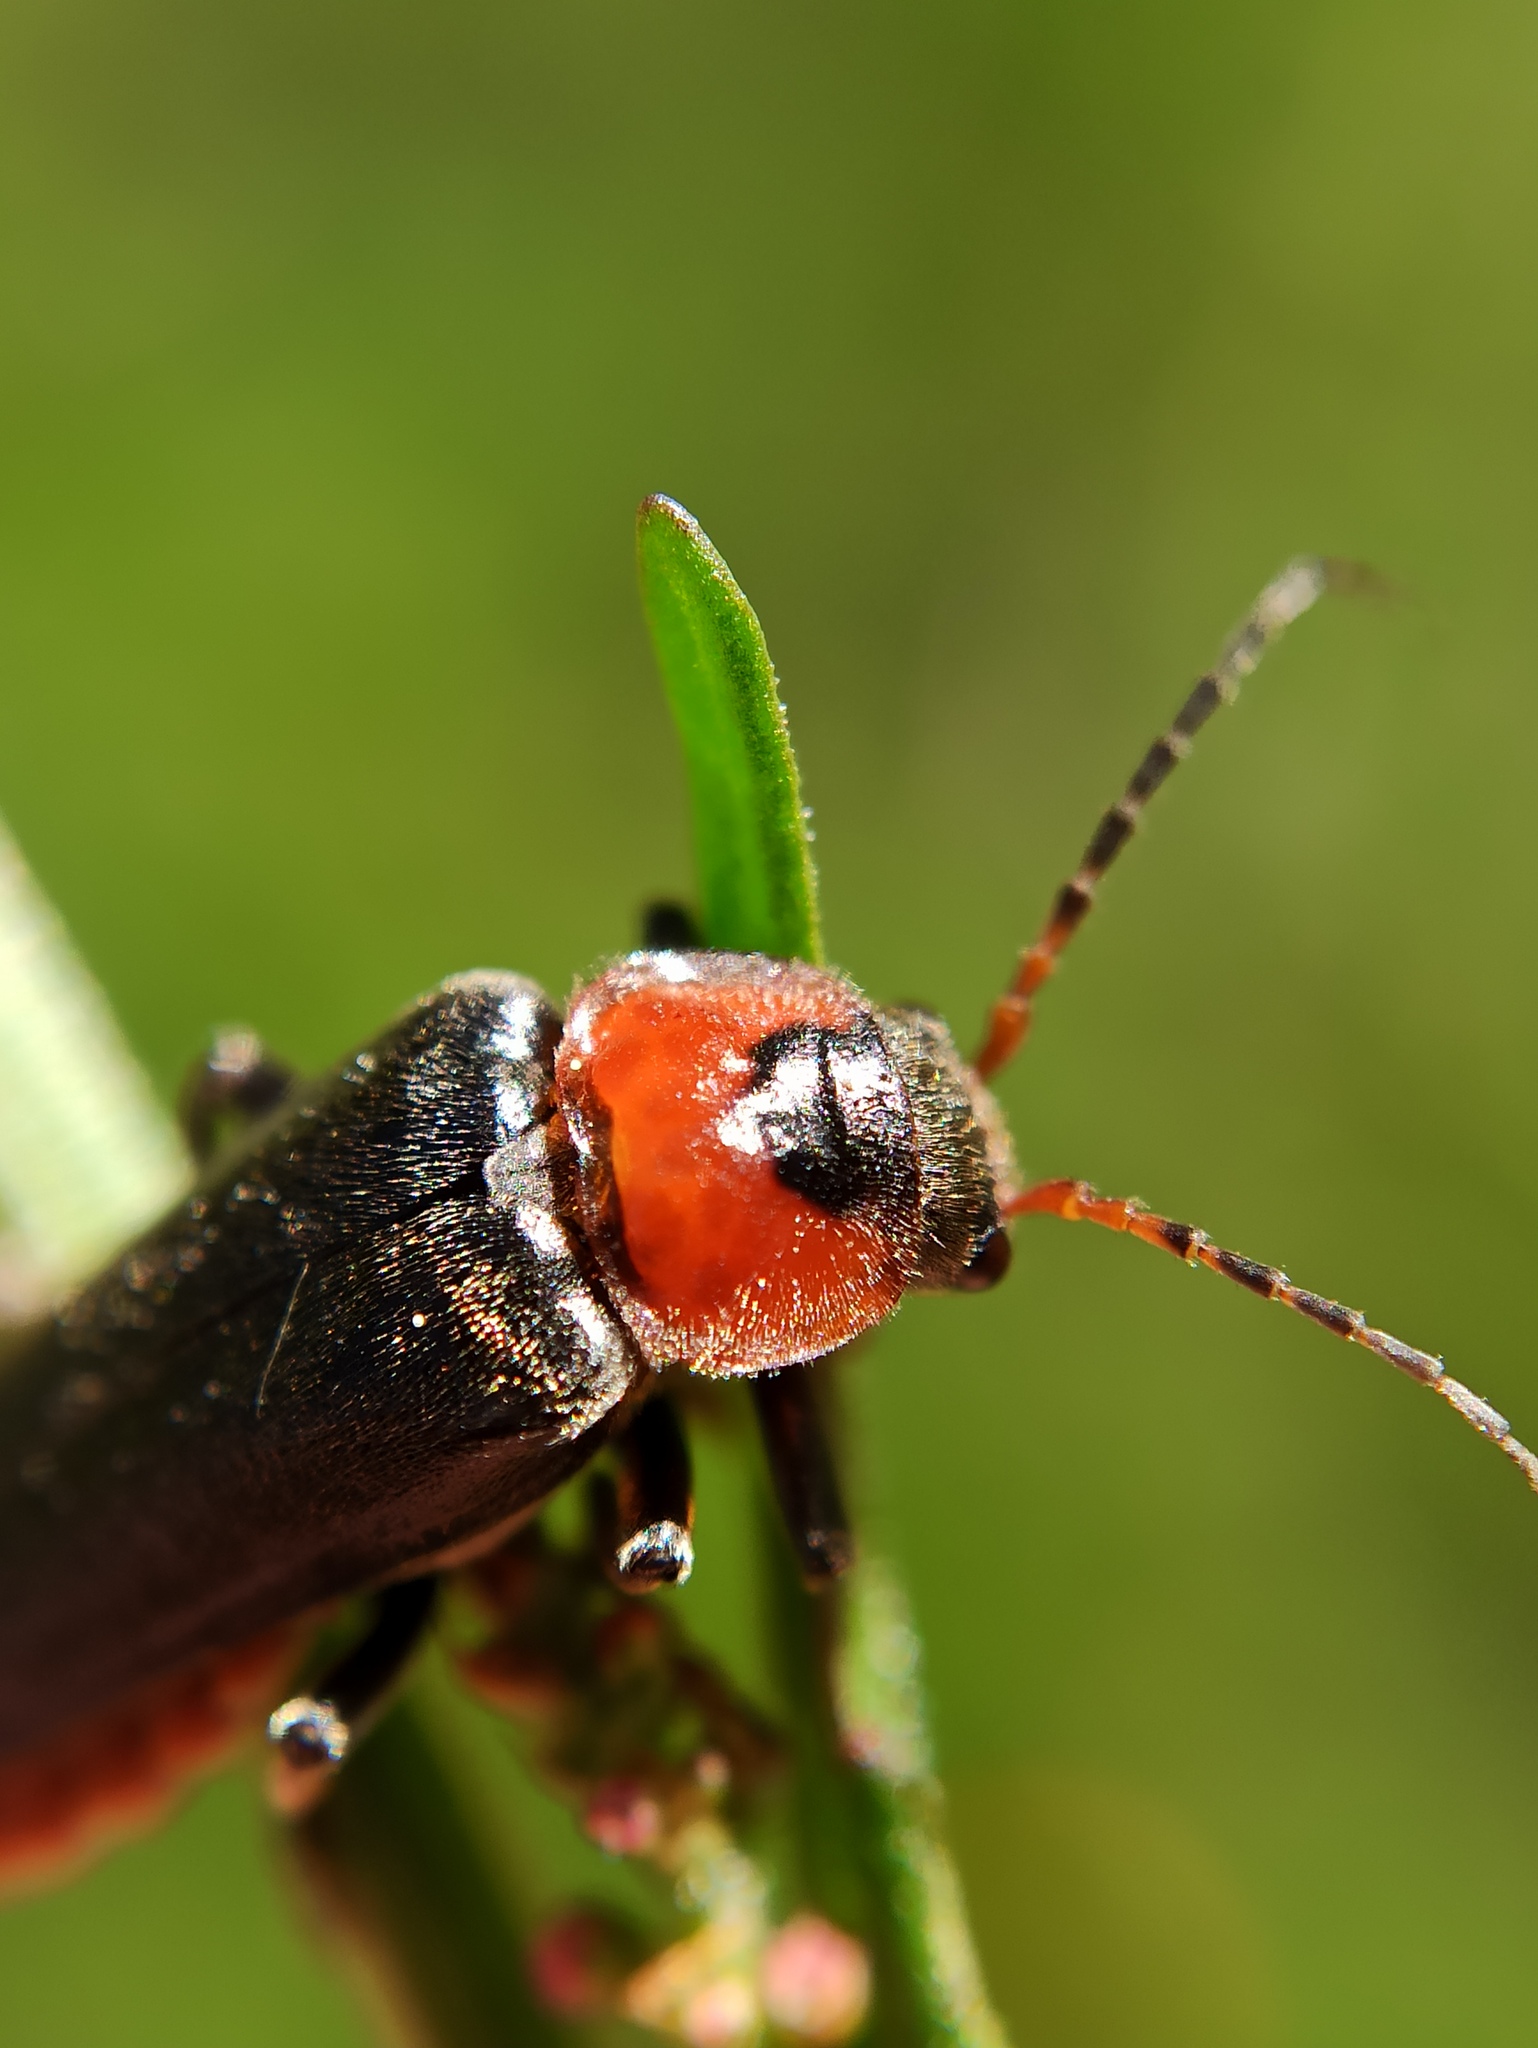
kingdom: Animalia
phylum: Arthropoda
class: Insecta
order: Coleoptera
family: Cantharidae
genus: Cantharis
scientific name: Cantharis fusca
